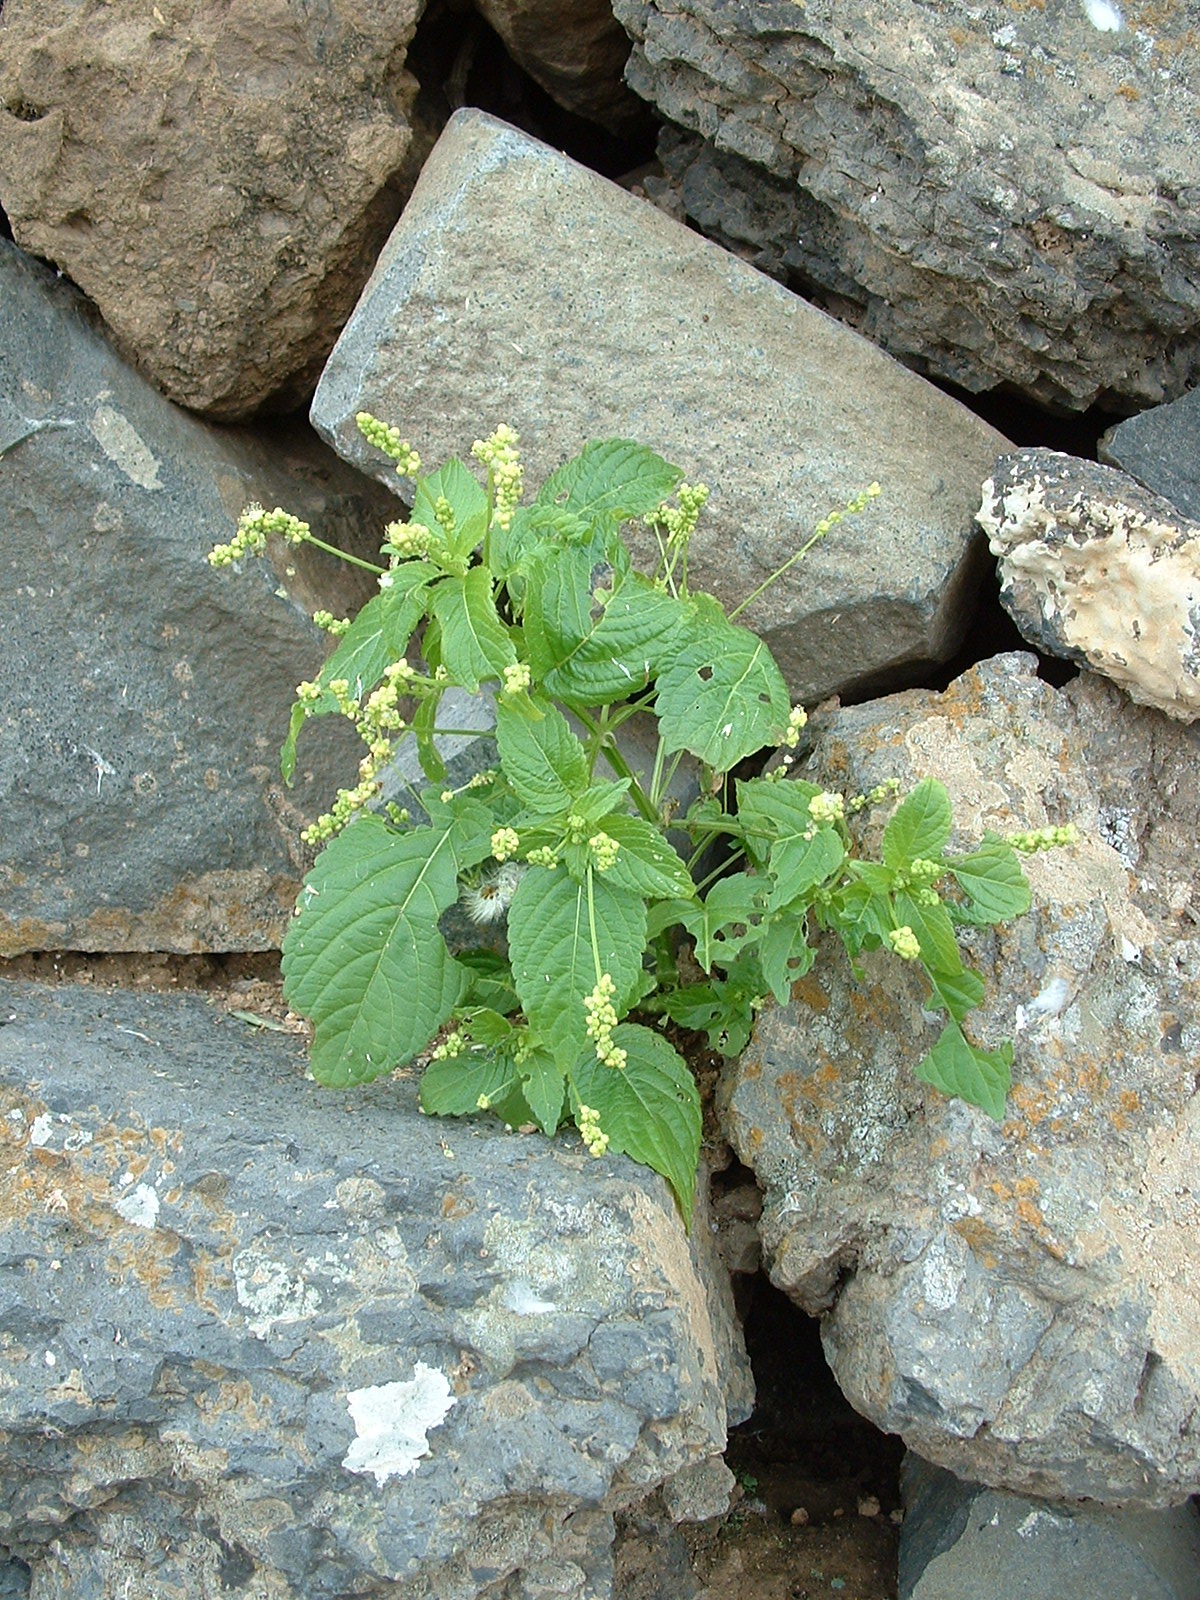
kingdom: Plantae
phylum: Tracheophyta
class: Magnoliopsida
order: Malpighiales
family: Euphorbiaceae
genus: Mercurialis
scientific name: Mercurialis canariensis
